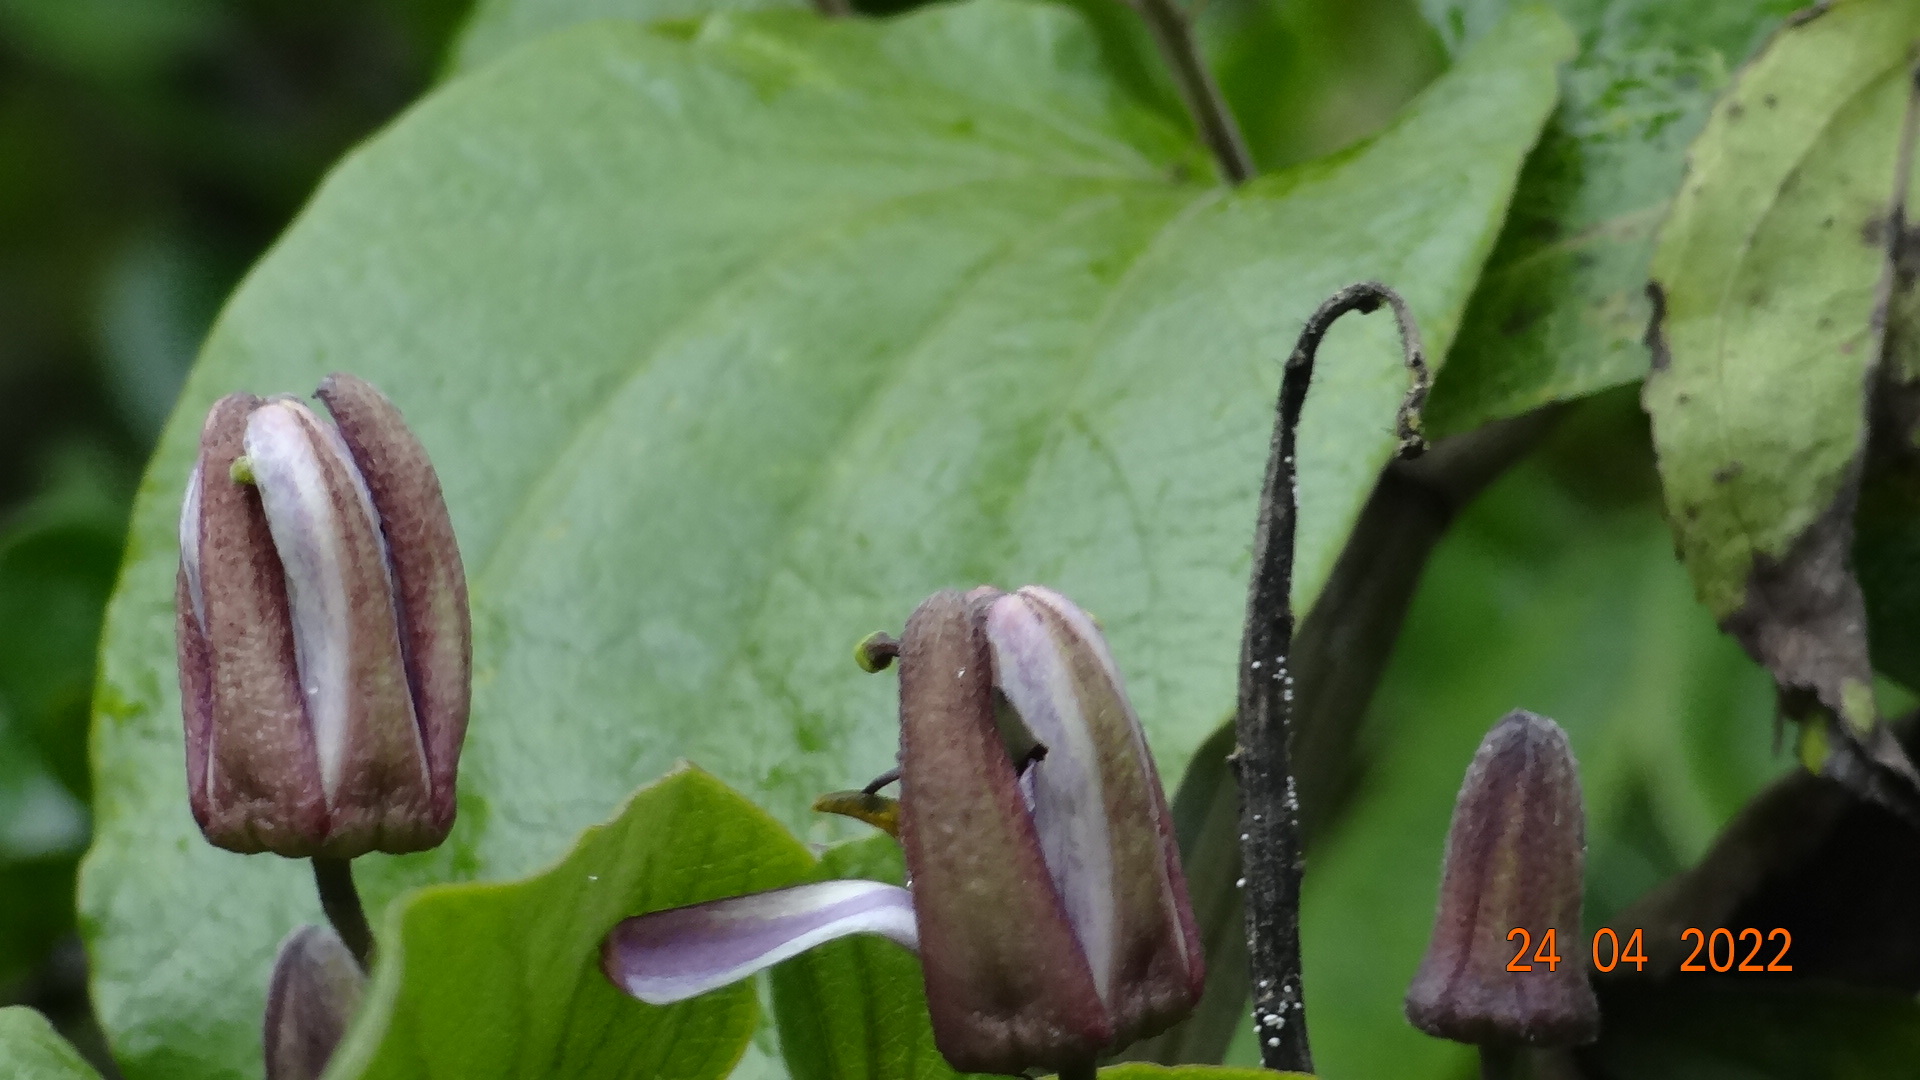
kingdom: Plantae
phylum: Tracheophyta
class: Magnoliopsida
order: Malpighiales
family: Passifloraceae
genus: Passiflora
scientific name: Passiflora alnifolia
